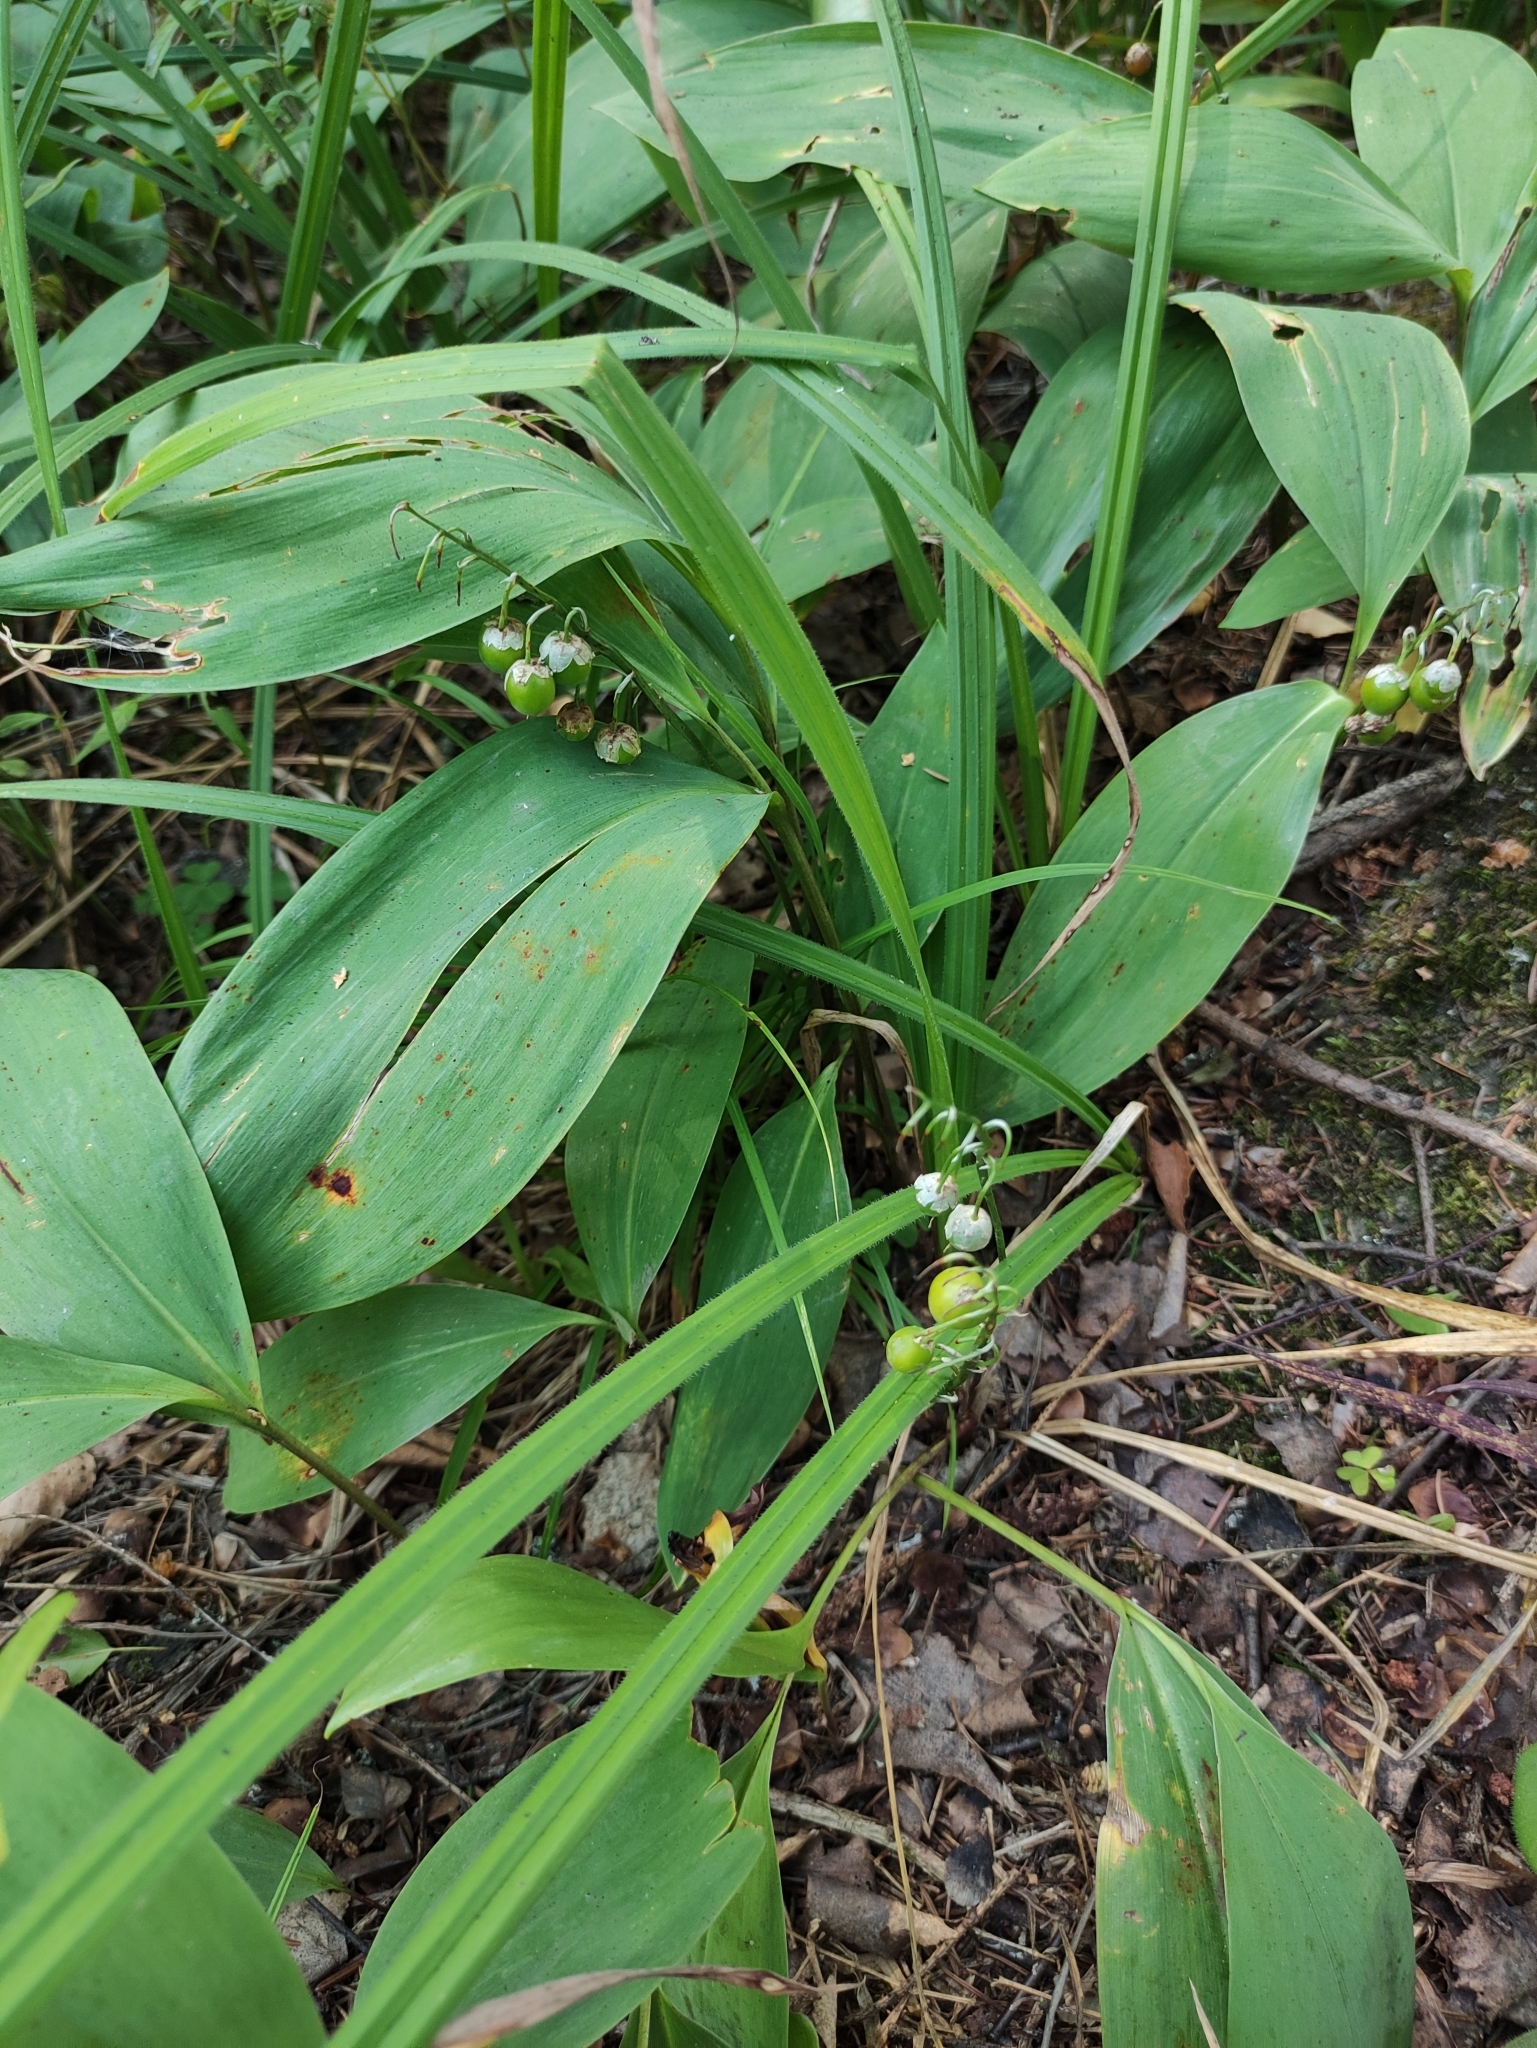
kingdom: Plantae
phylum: Tracheophyta
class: Liliopsida
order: Asparagales
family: Asparagaceae
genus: Convallaria
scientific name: Convallaria majalis
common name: Lily-of-the-valley
